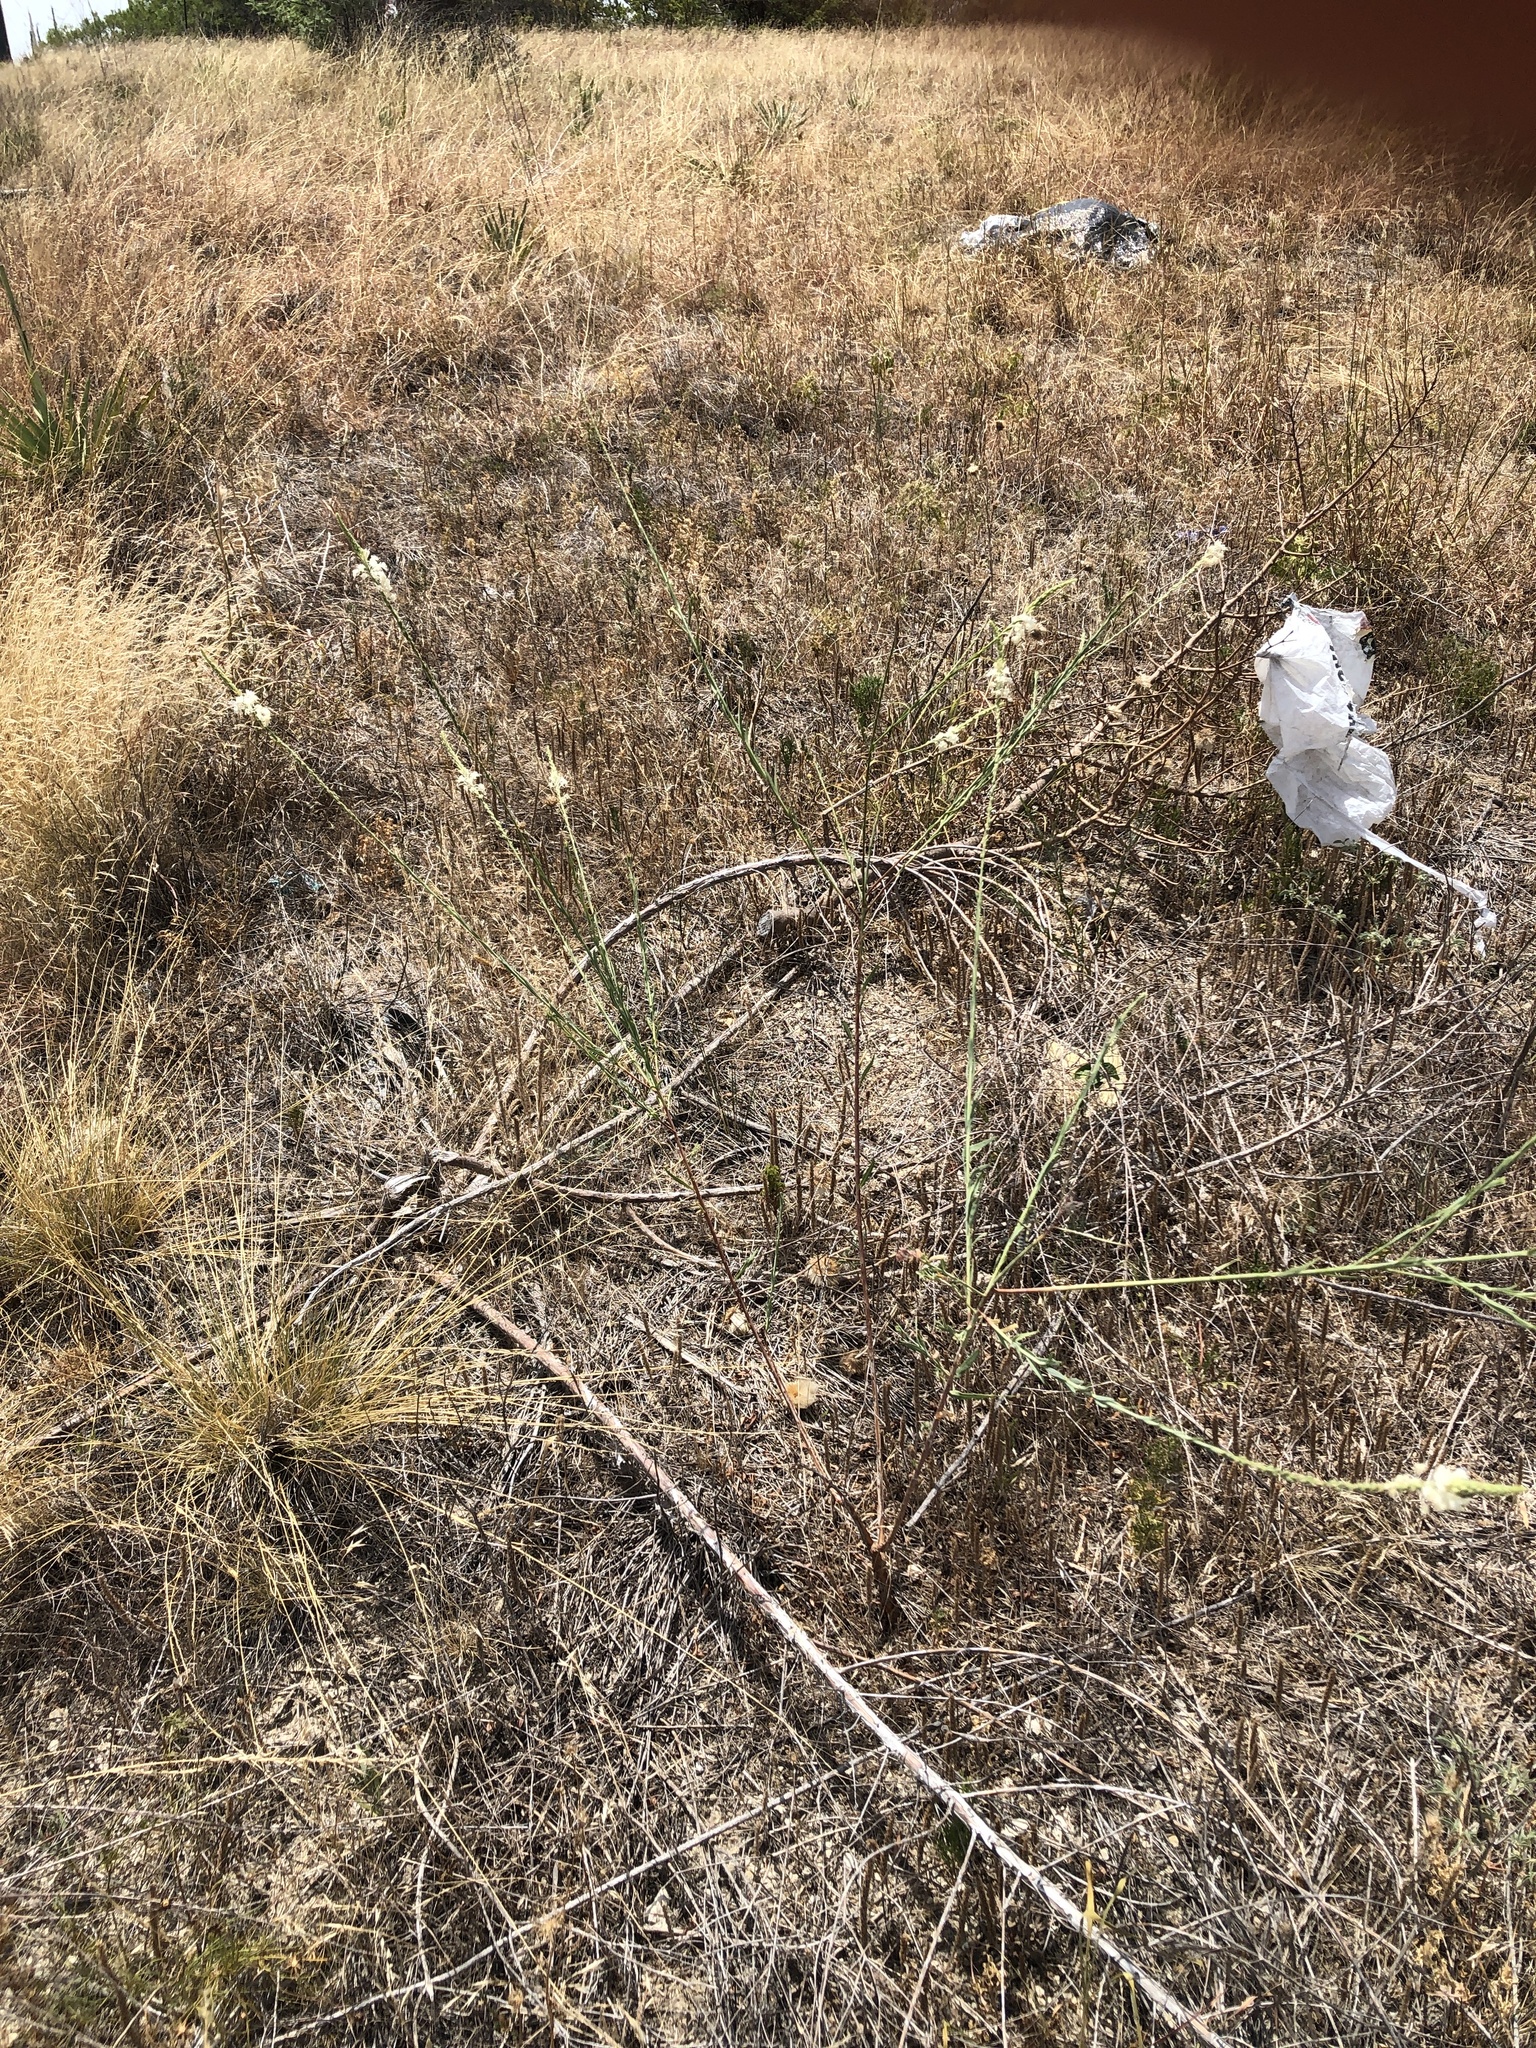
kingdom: Plantae
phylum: Tracheophyta
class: Magnoliopsida
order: Myrtales
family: Onagraceae
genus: Oenothera
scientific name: Oenothera glaucifolia
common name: False gaura
